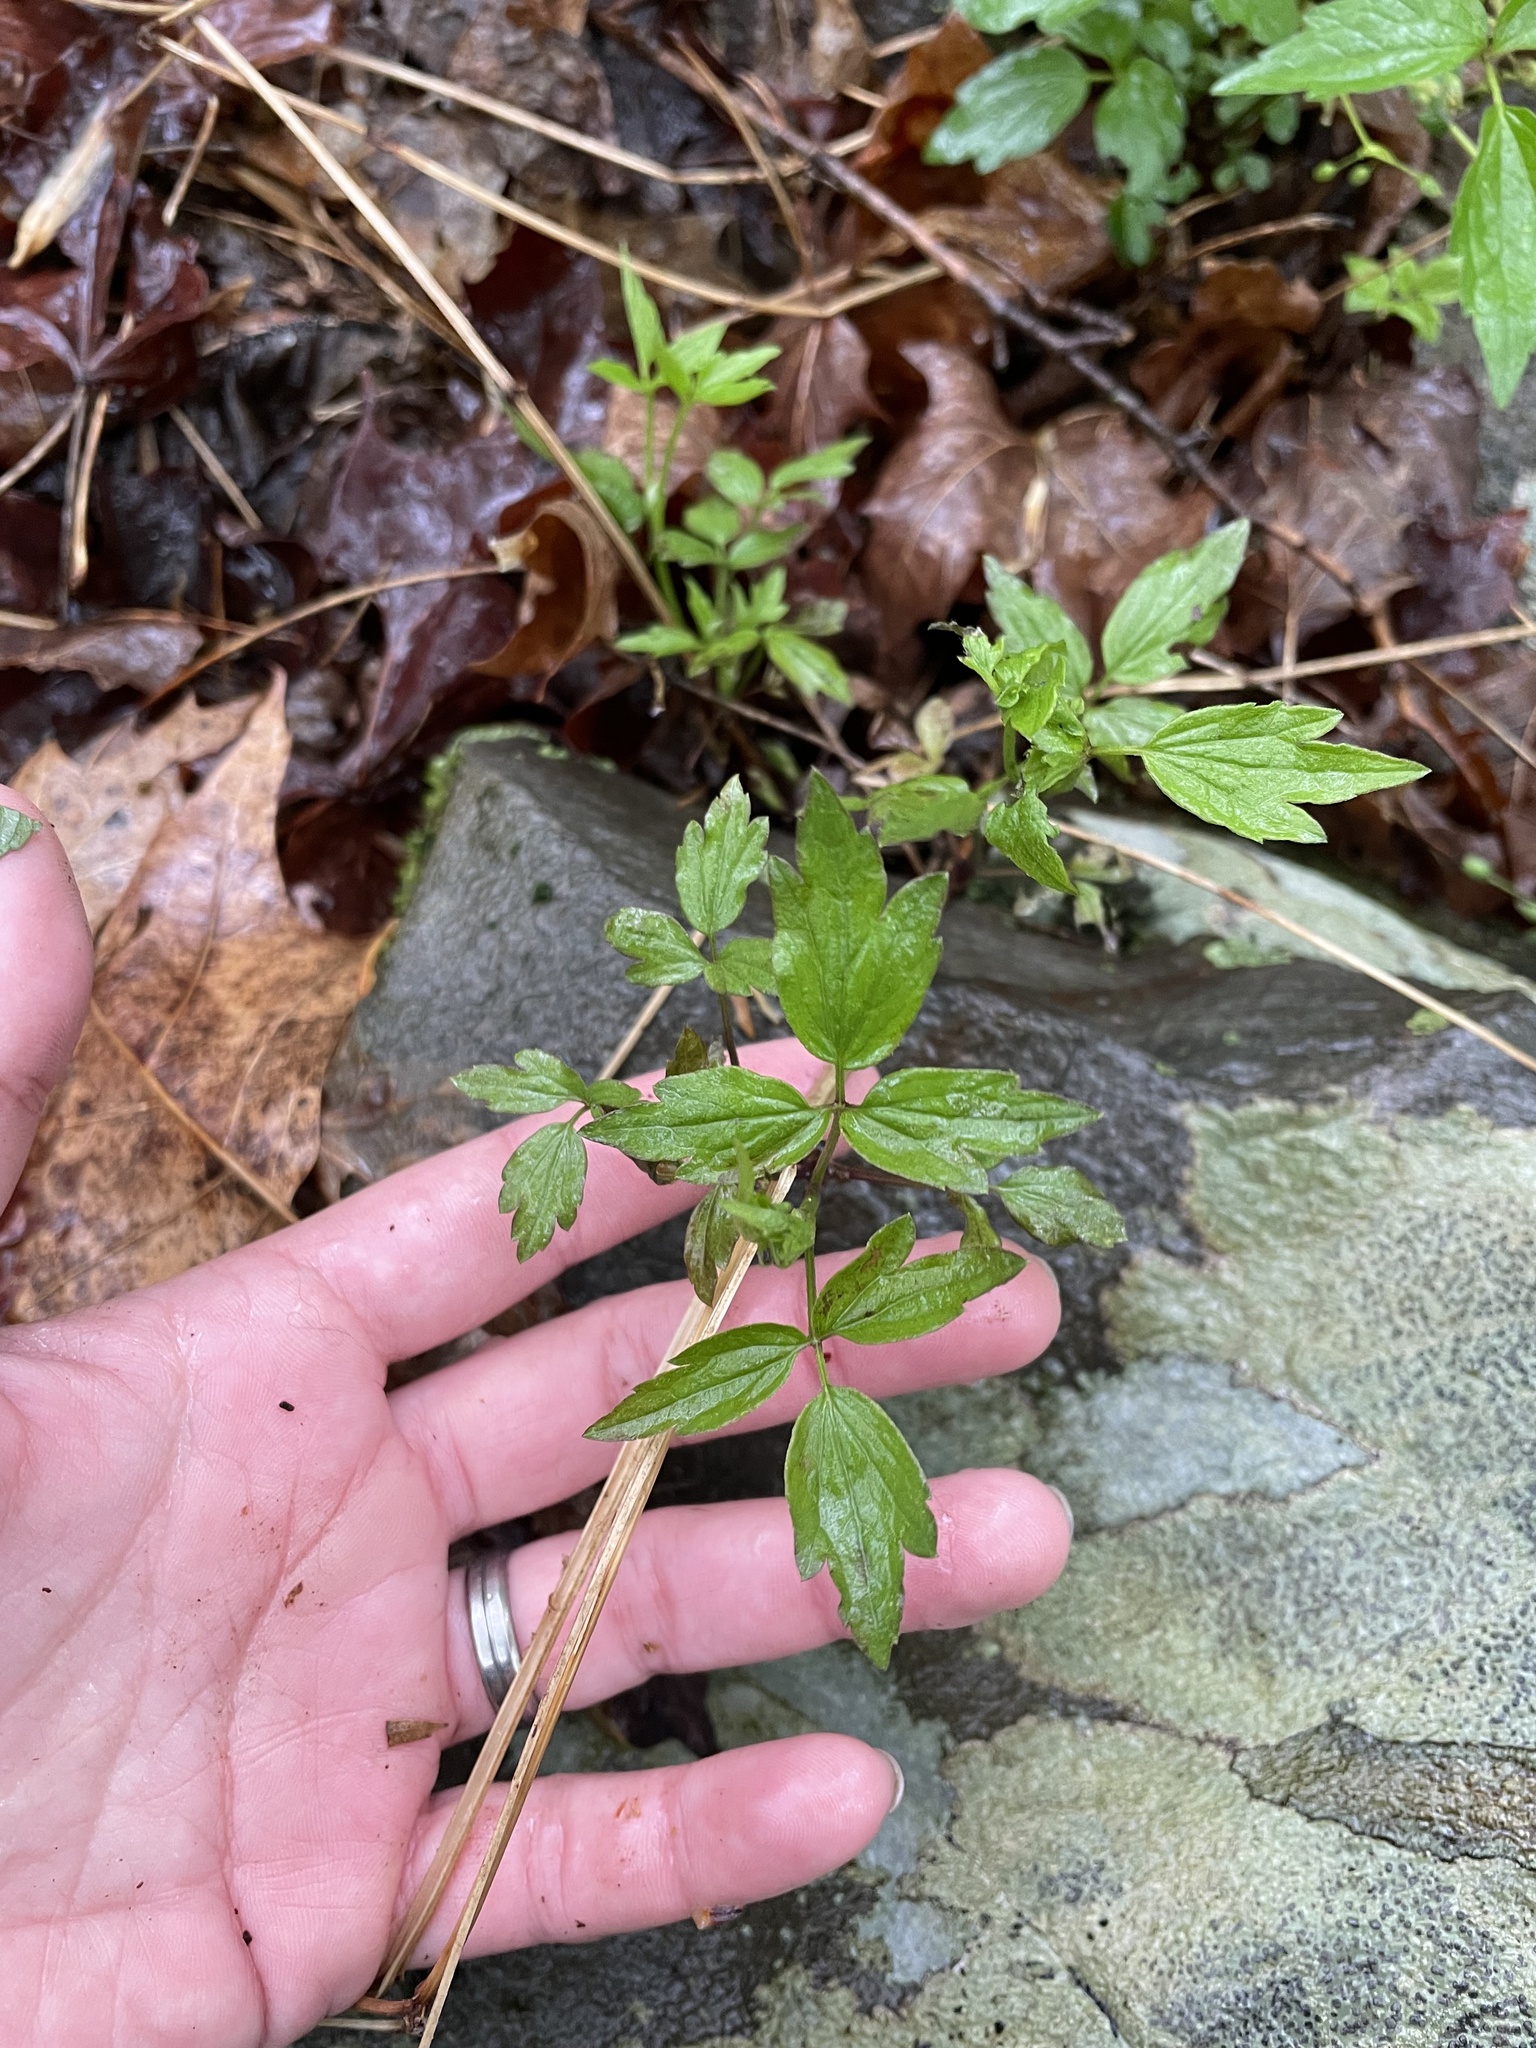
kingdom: Plantae
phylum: Tracheophyta
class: Magnoliopsida
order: Ranunculales
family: Ranunculaceae
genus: Clematis
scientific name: Clematis virginiana
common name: Virgin's-bower
